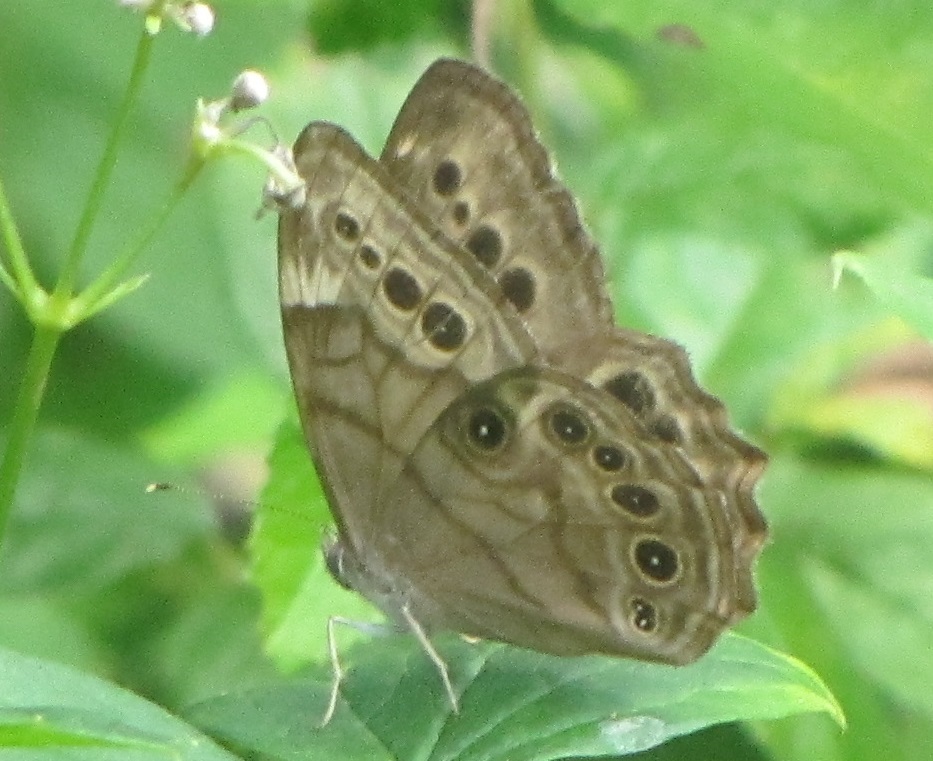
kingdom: Animalia
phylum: Arthropoda
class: Insecta
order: Lepidoptera
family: Nymphalidae
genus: Lethe
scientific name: Lethe anthedon
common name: Northern pearly-eye
